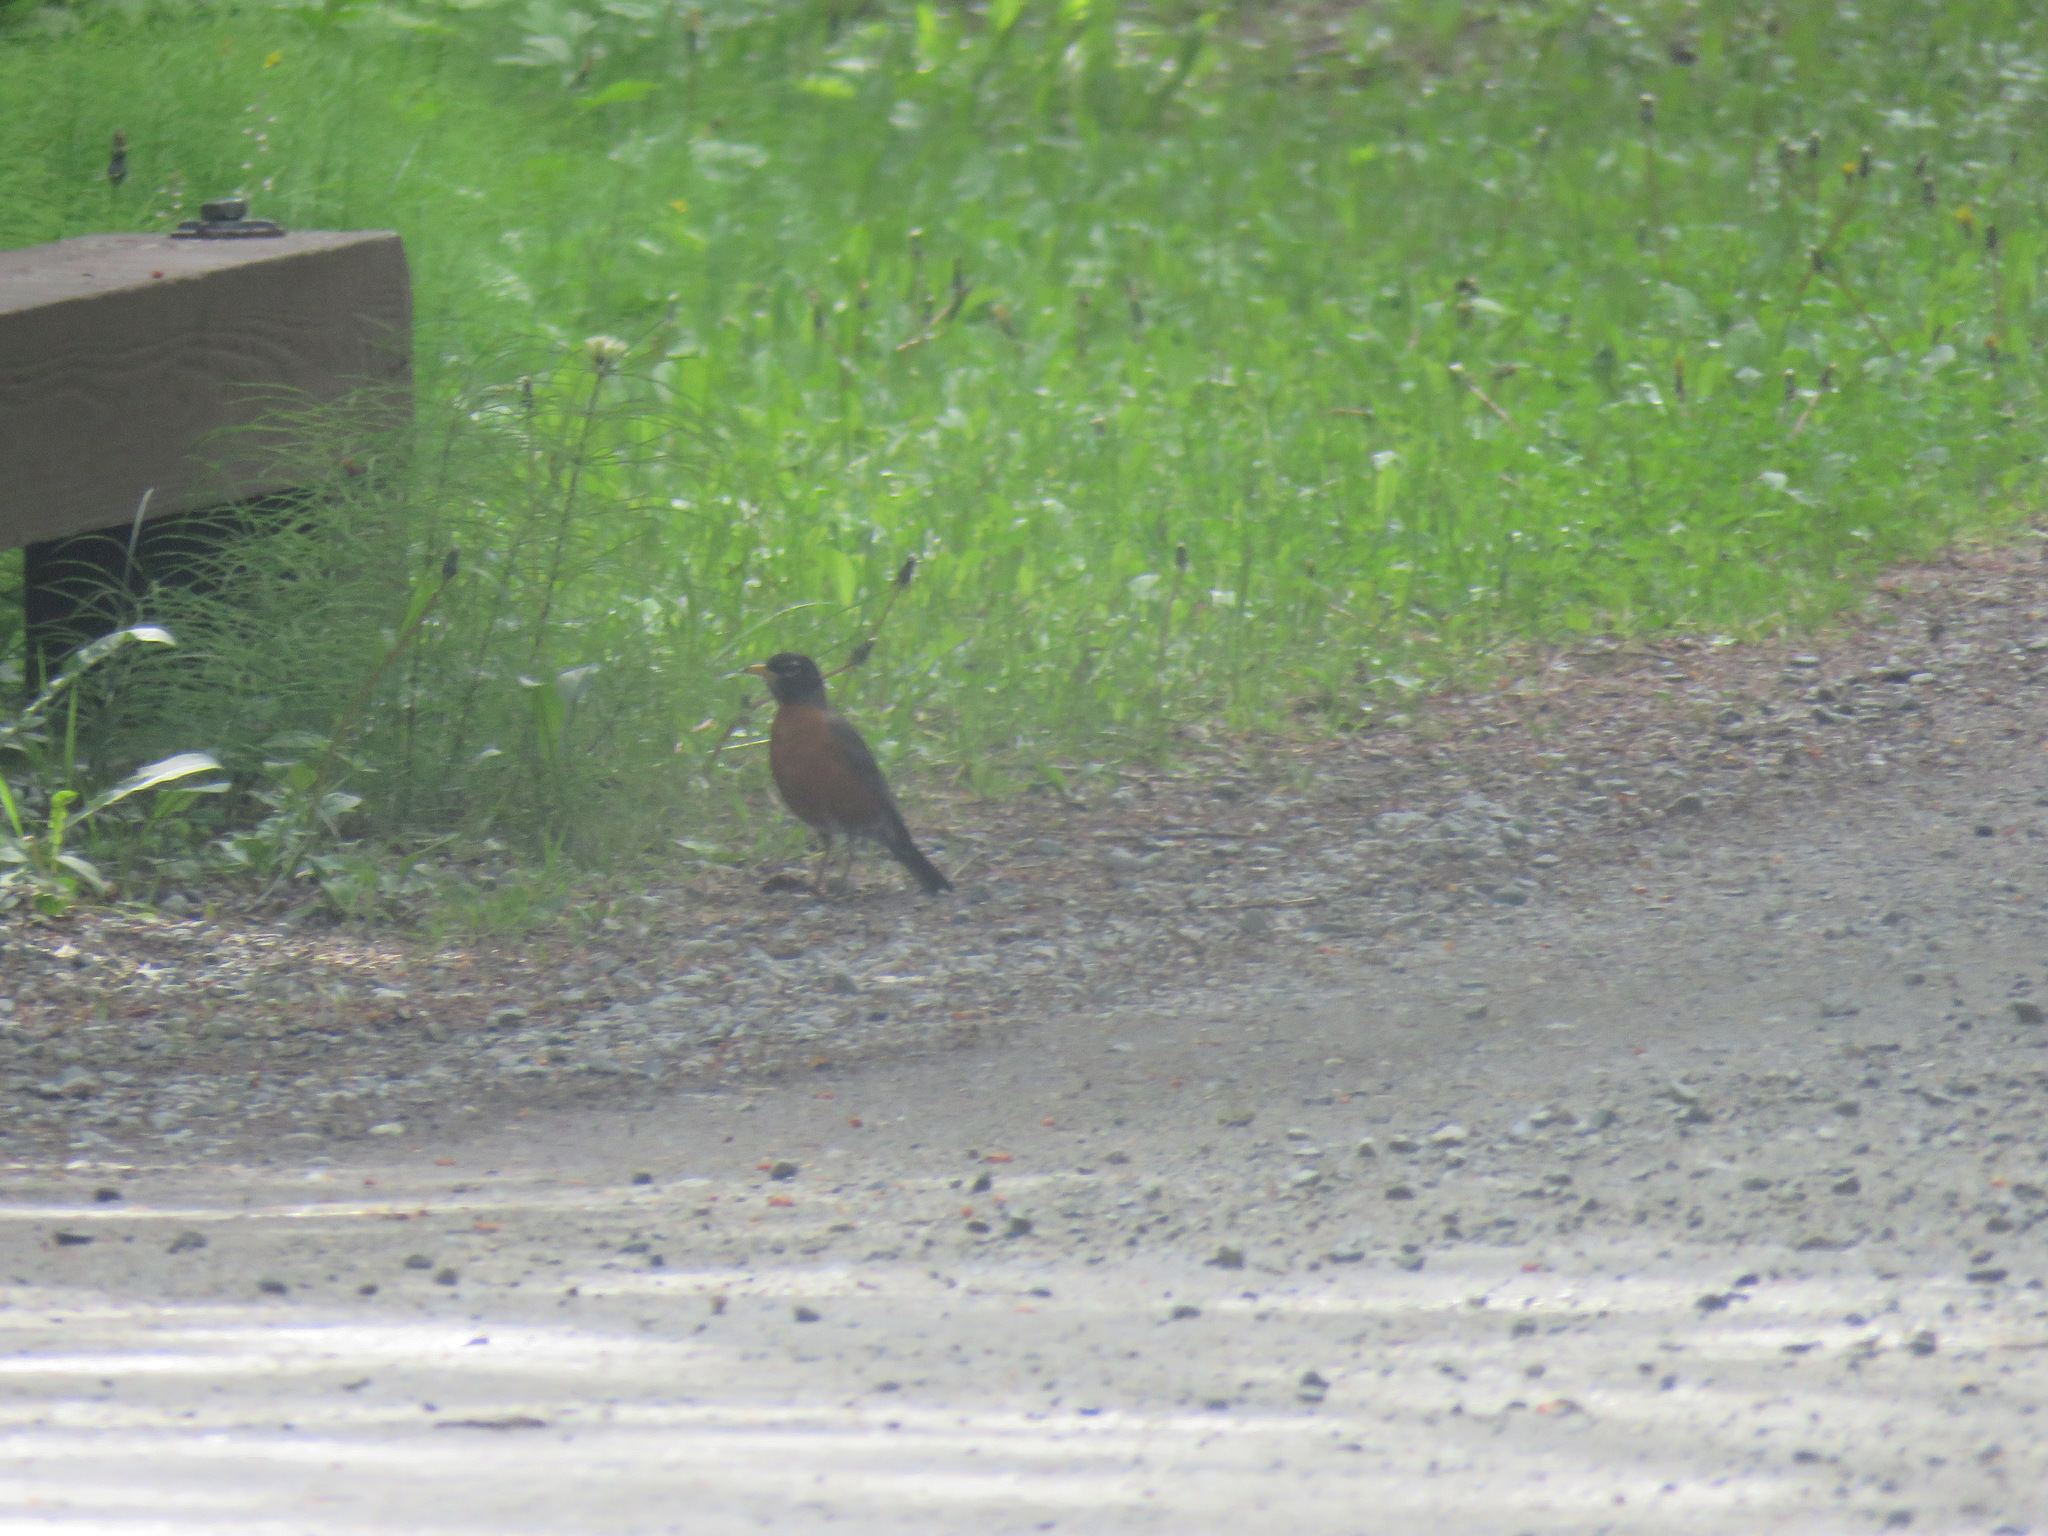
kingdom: Animalia
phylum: Chordata
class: Aves
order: Passeriformes
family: Turdidae
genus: Turdus
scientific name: Turdus migratorius
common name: American robin
